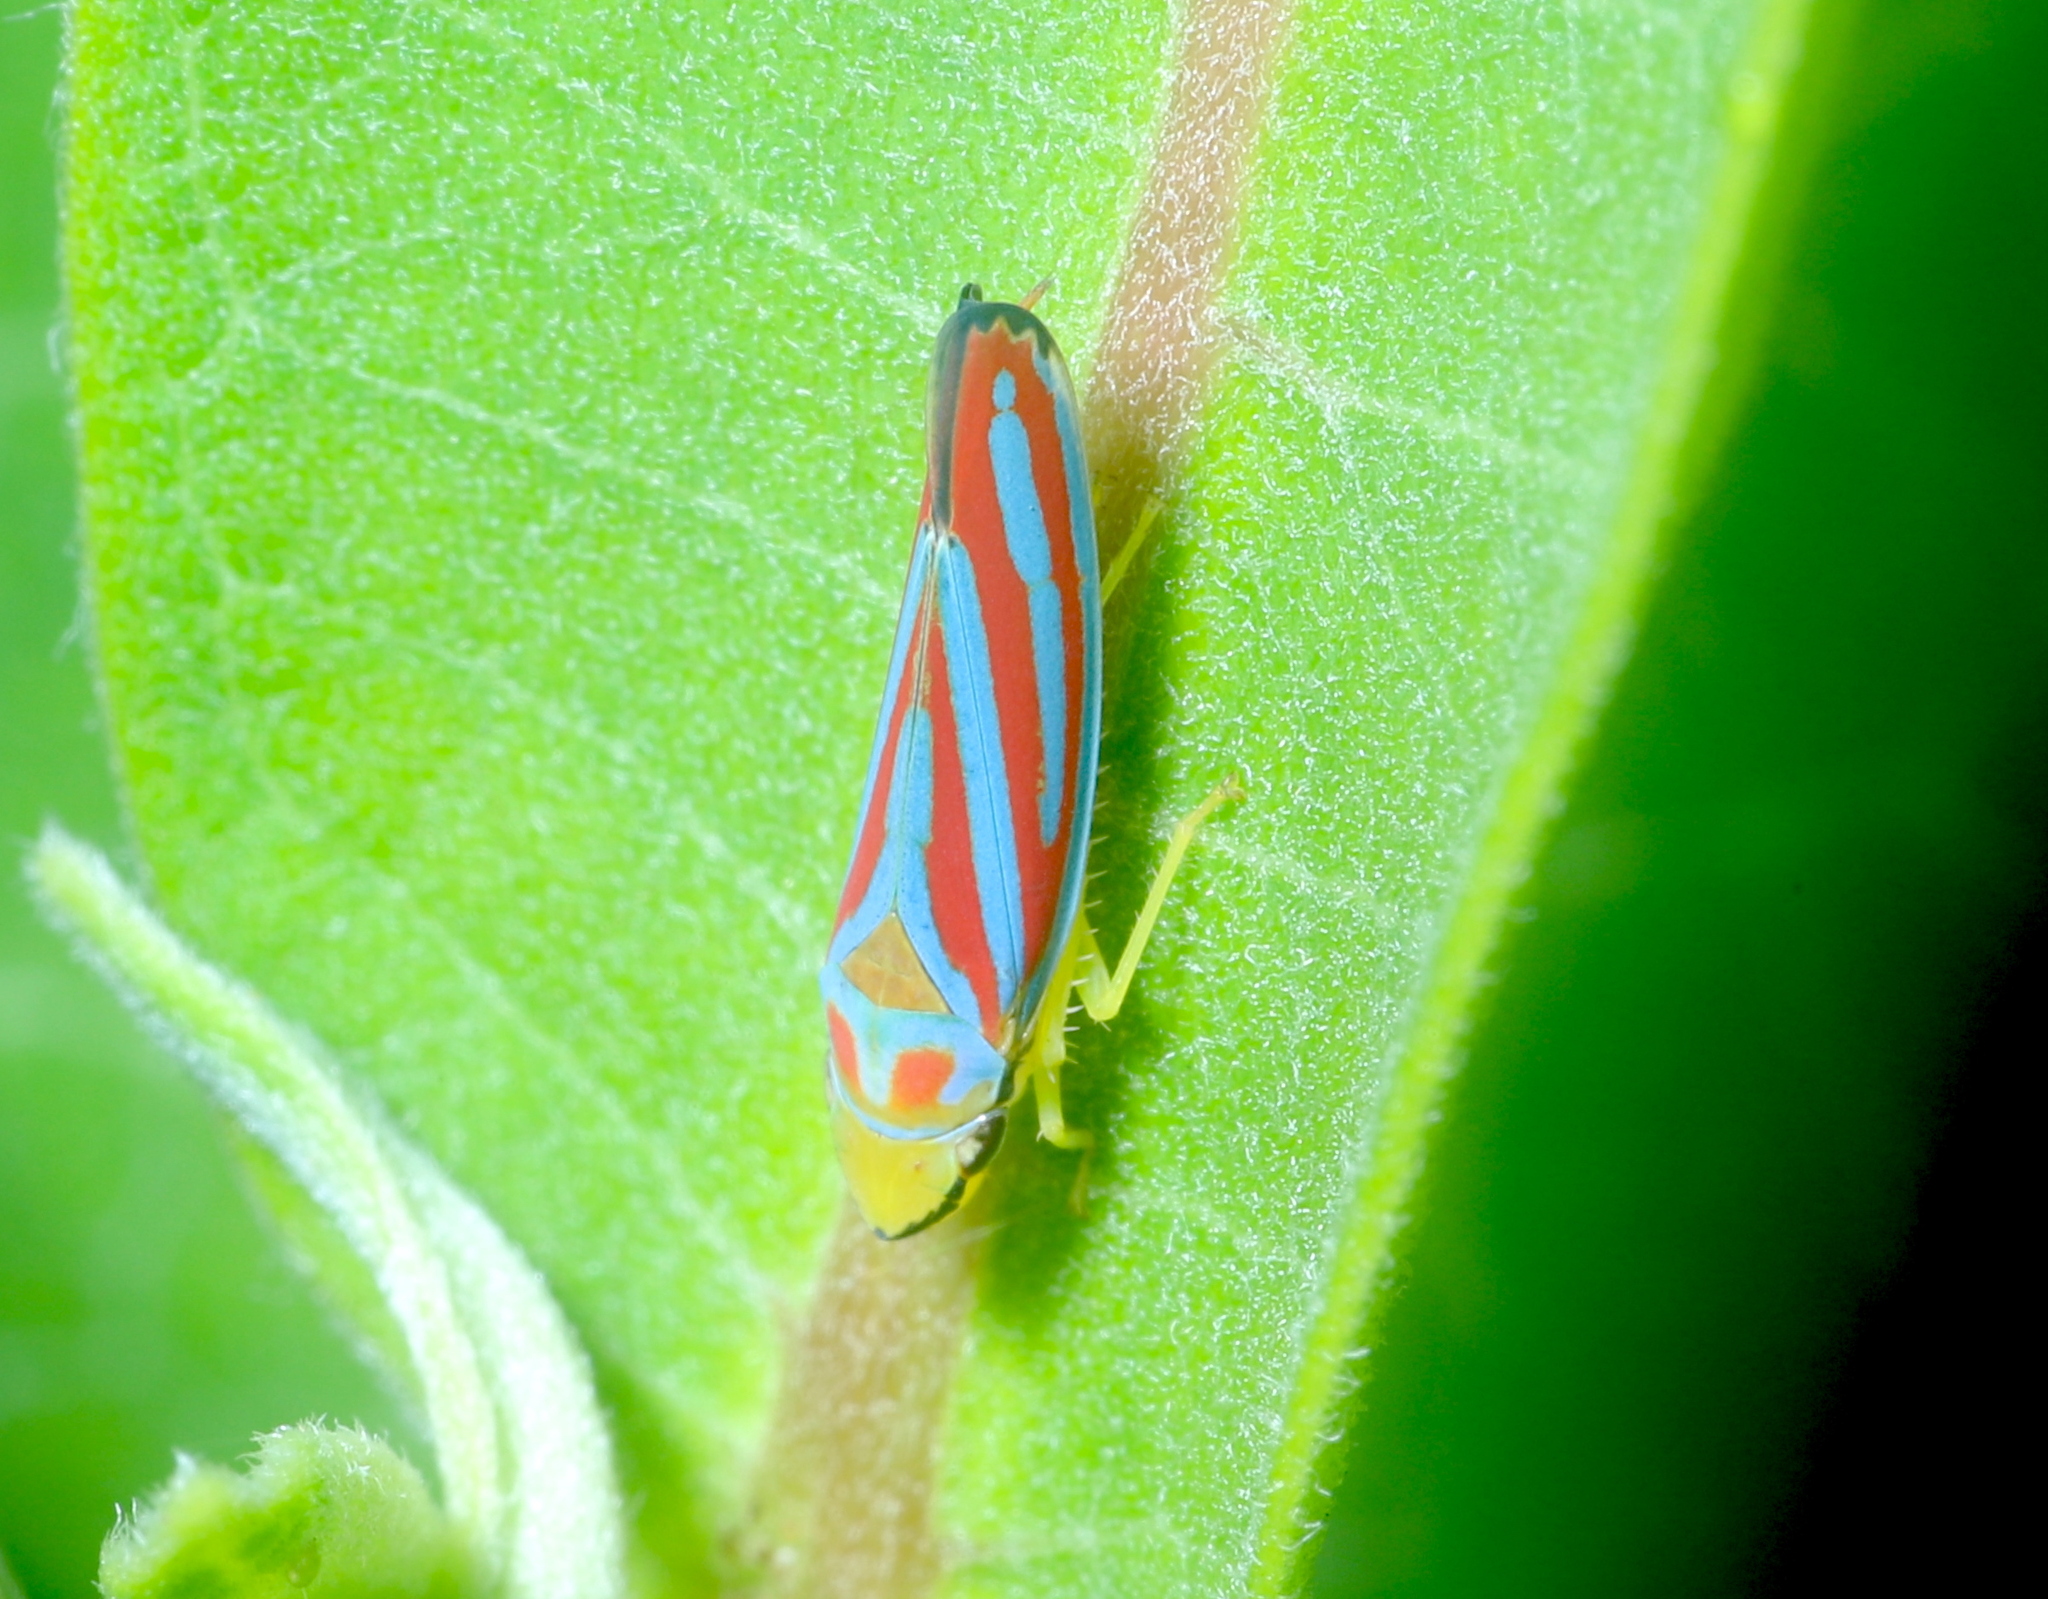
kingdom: Animalia
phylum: Arthropoda
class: Insecta
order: Hemiptera
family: Cicadellidae
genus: Graphocephala
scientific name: Graphocephala coccinea
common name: Candy-striped leafhopper
